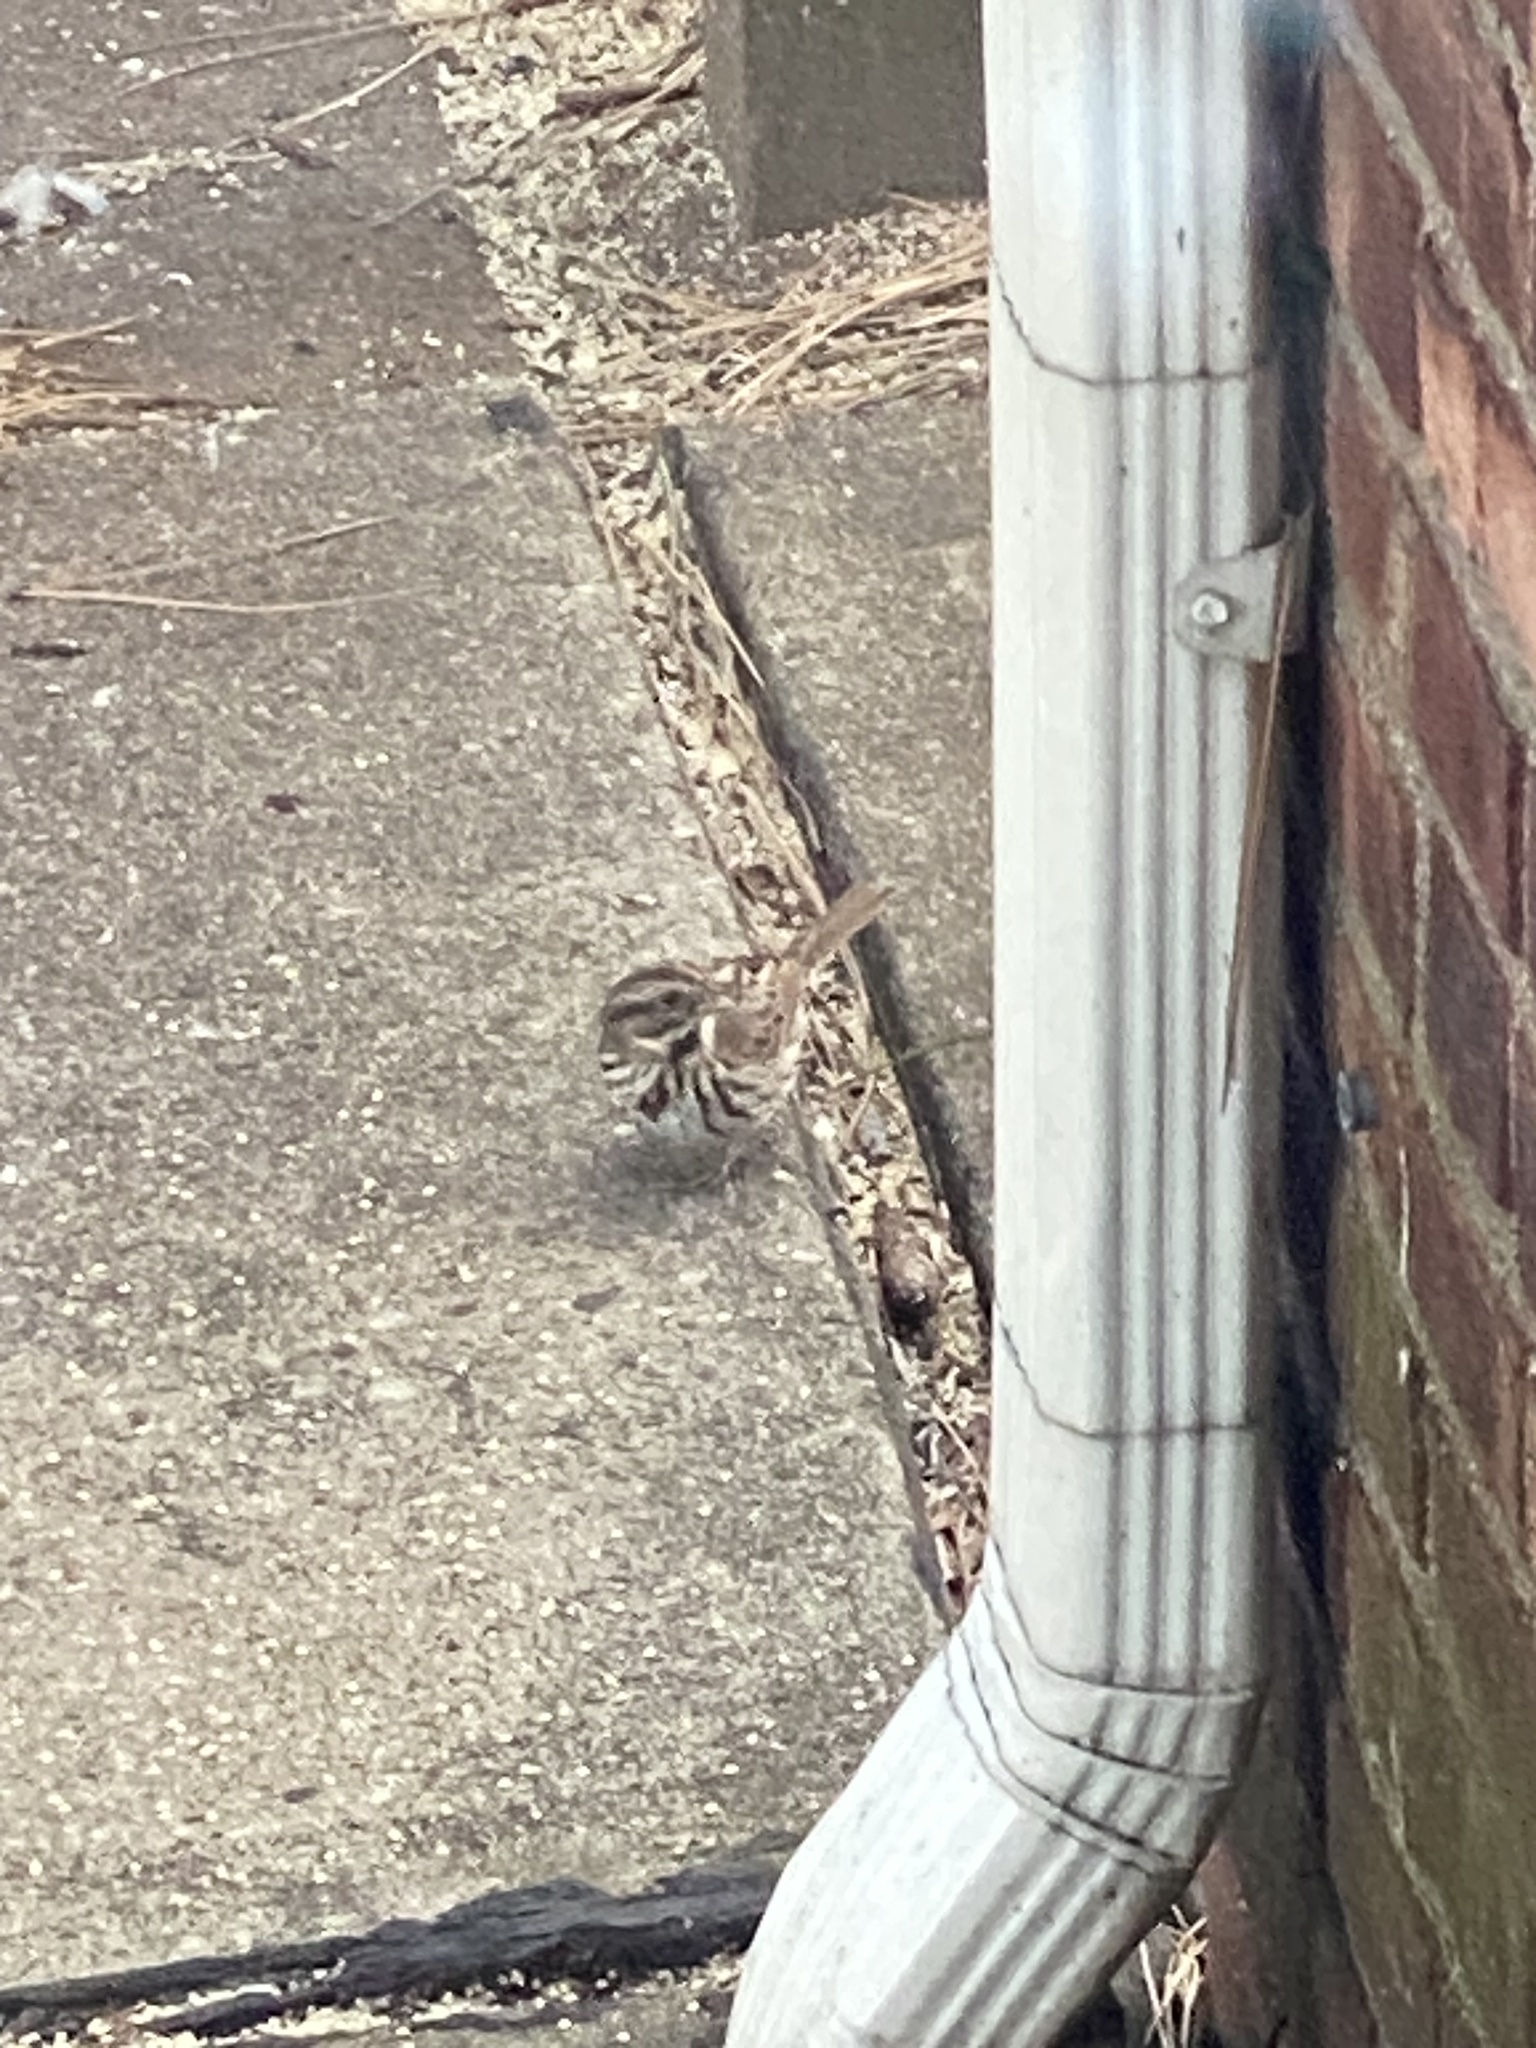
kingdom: Animalia
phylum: Chordata
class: Aves
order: Passeriformes
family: Passerellidae
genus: Melospiza
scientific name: Melospiza melodia
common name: Song sparrow
